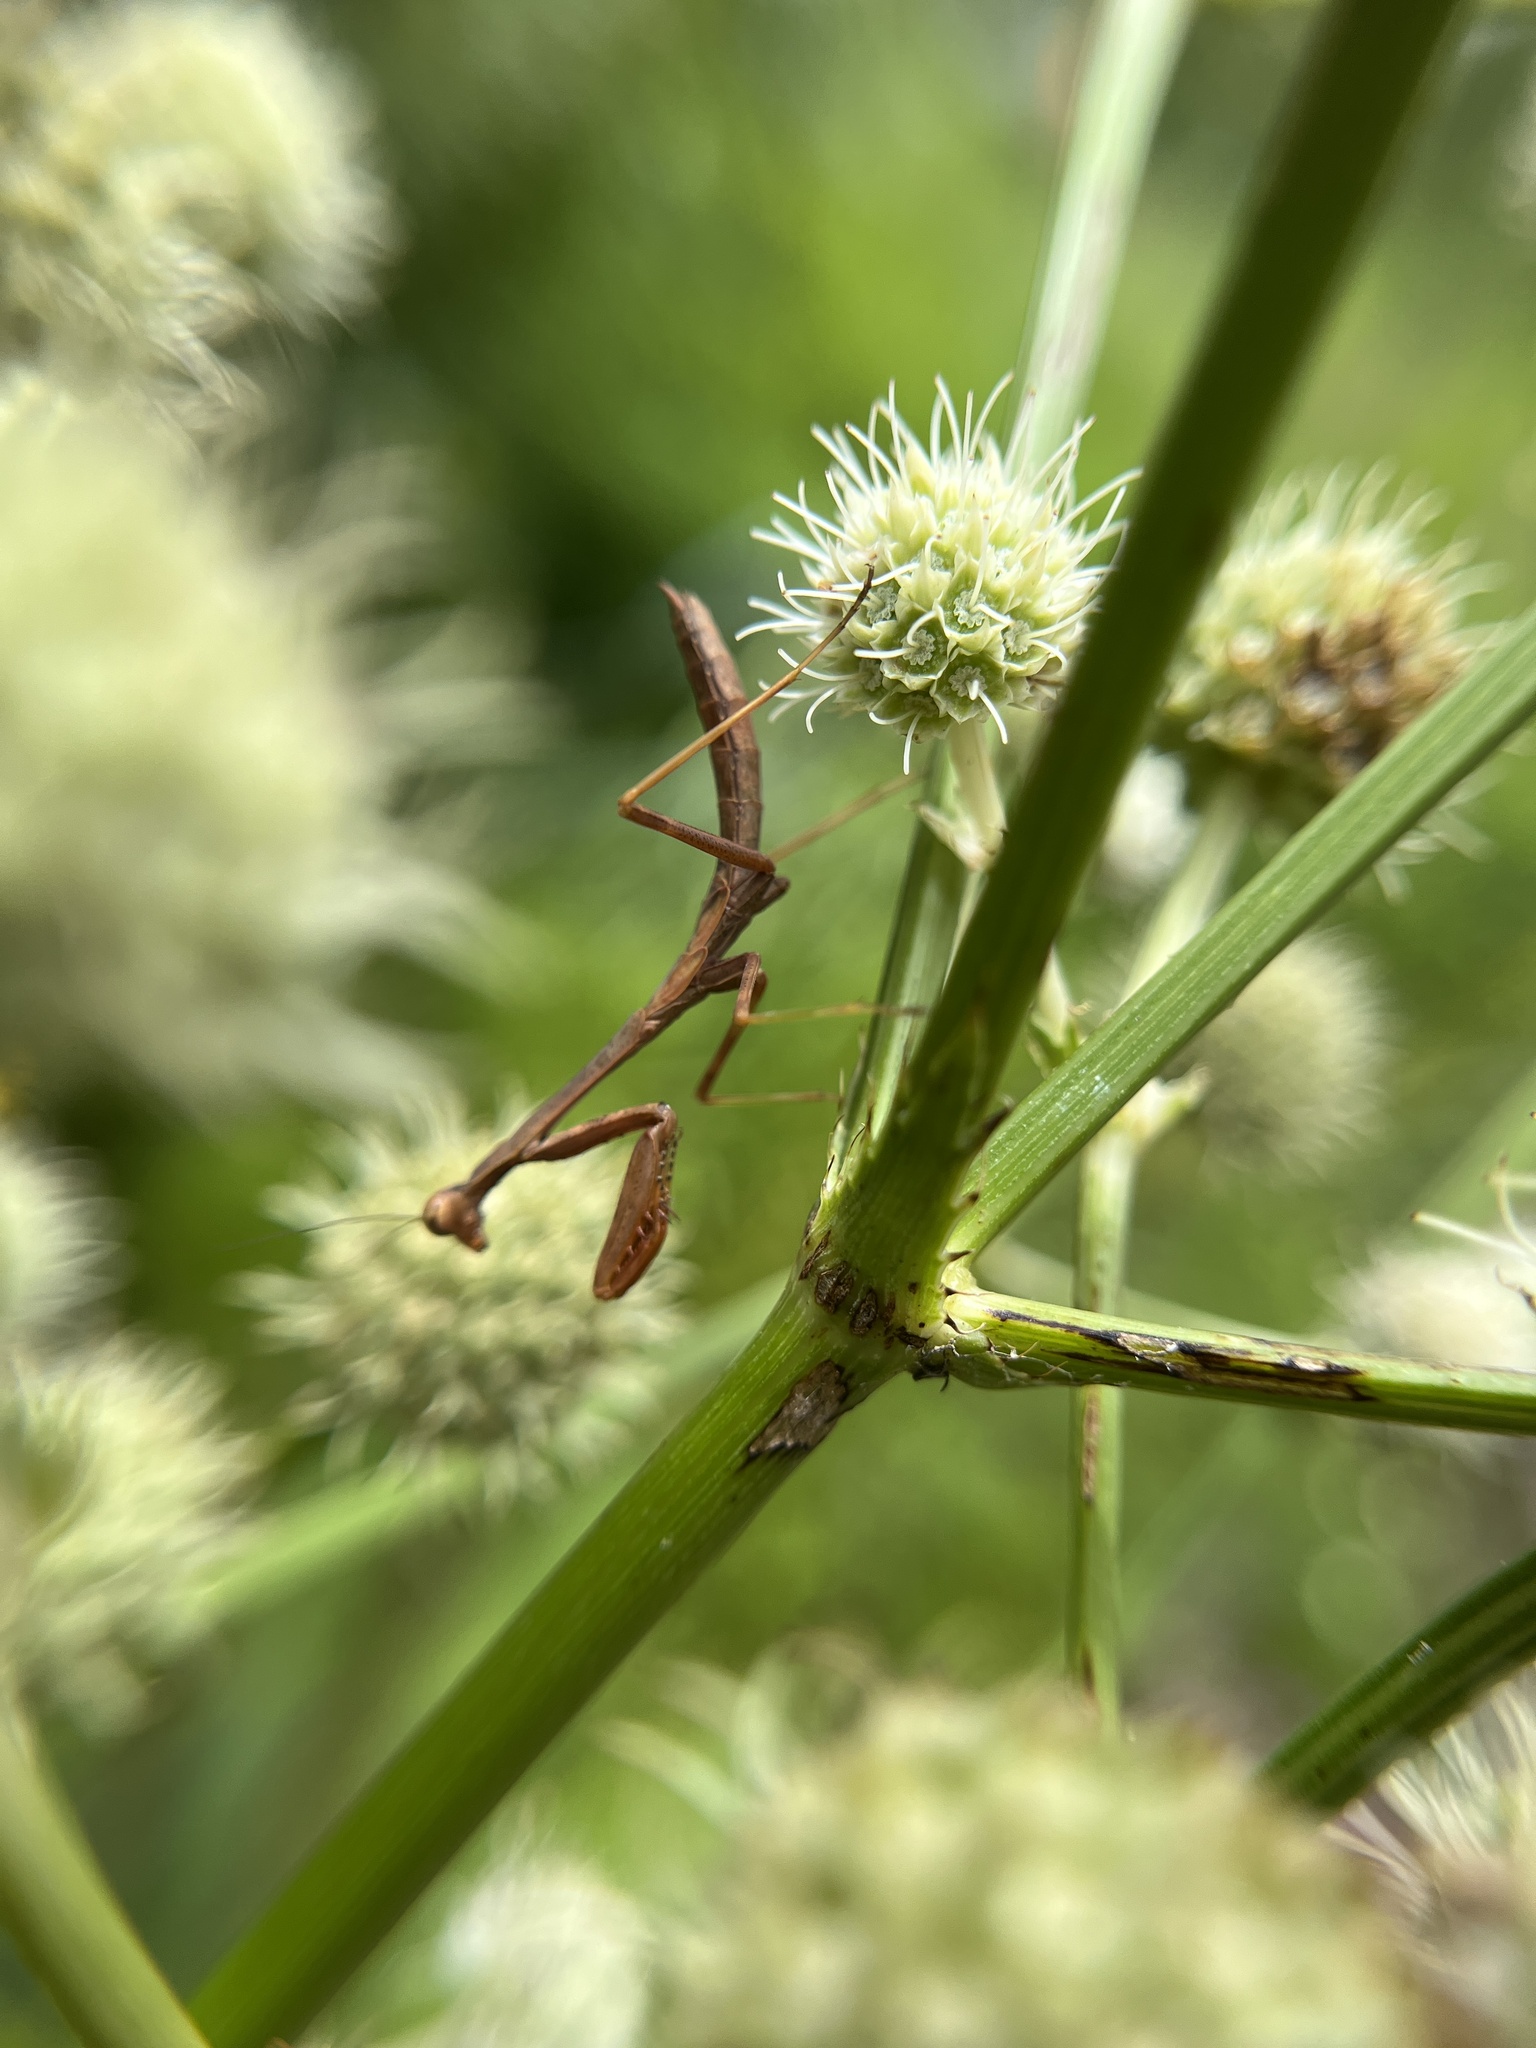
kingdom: Animalia
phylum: Arthropoda
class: Insecta
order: Mantodea
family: Mantidae
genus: Stagmomantis
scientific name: Stagmomantis carolina
